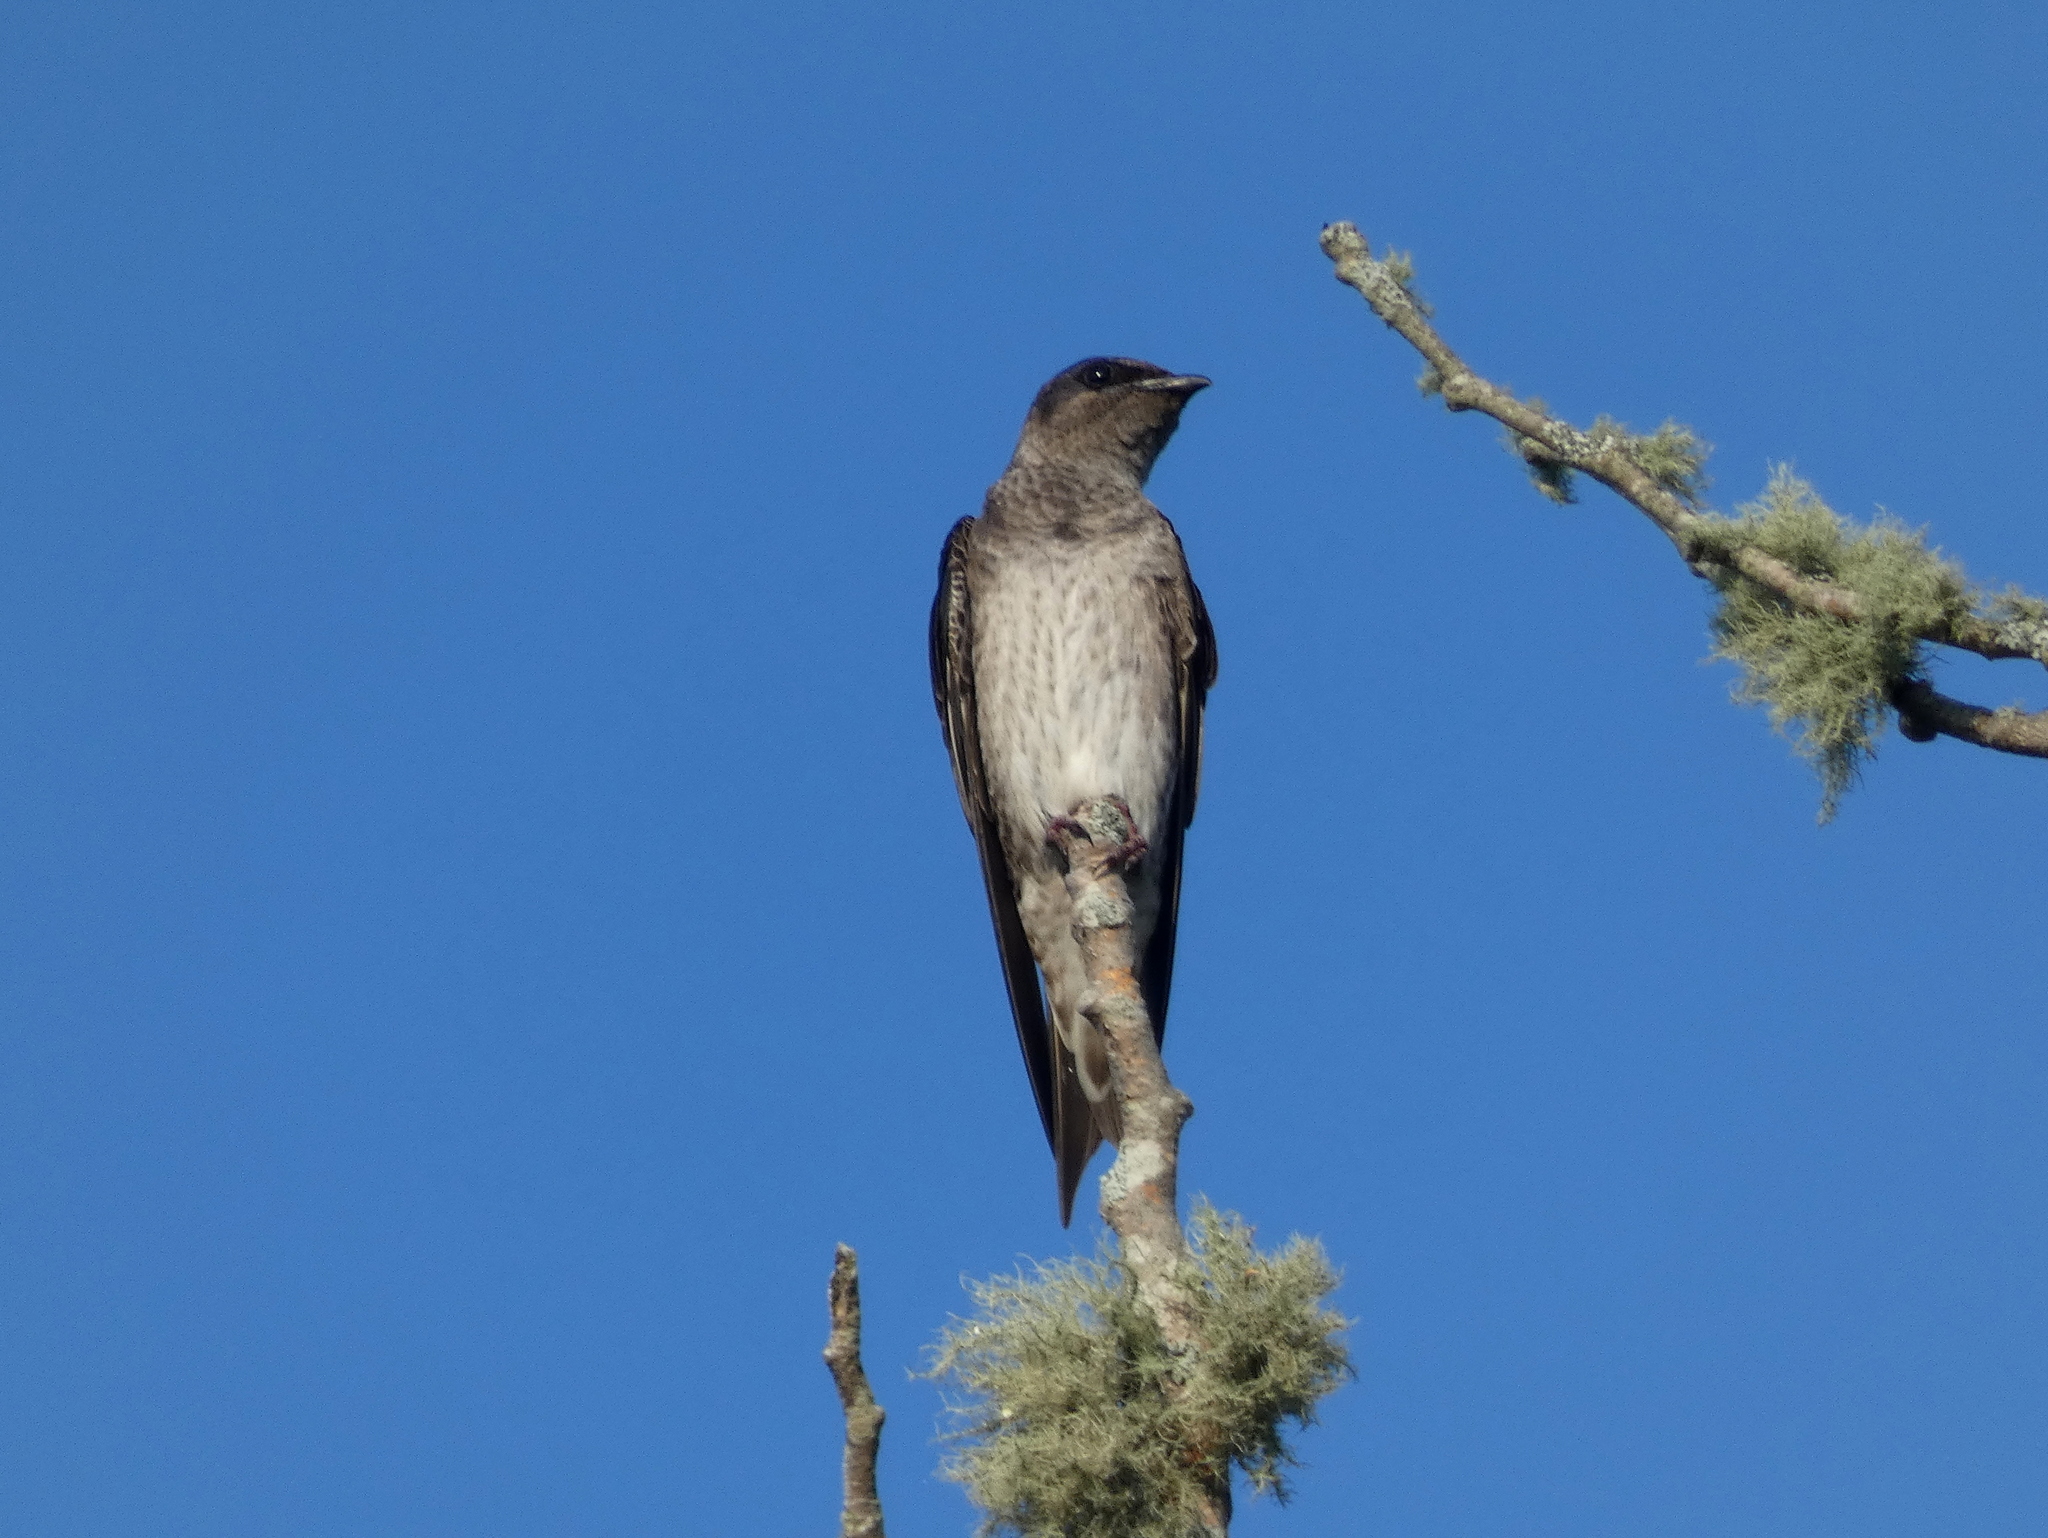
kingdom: Animalia
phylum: Chordata
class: Aves
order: Passeriformes
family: Hirundinidae
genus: Progne
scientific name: Progne subis
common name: Purple martin
